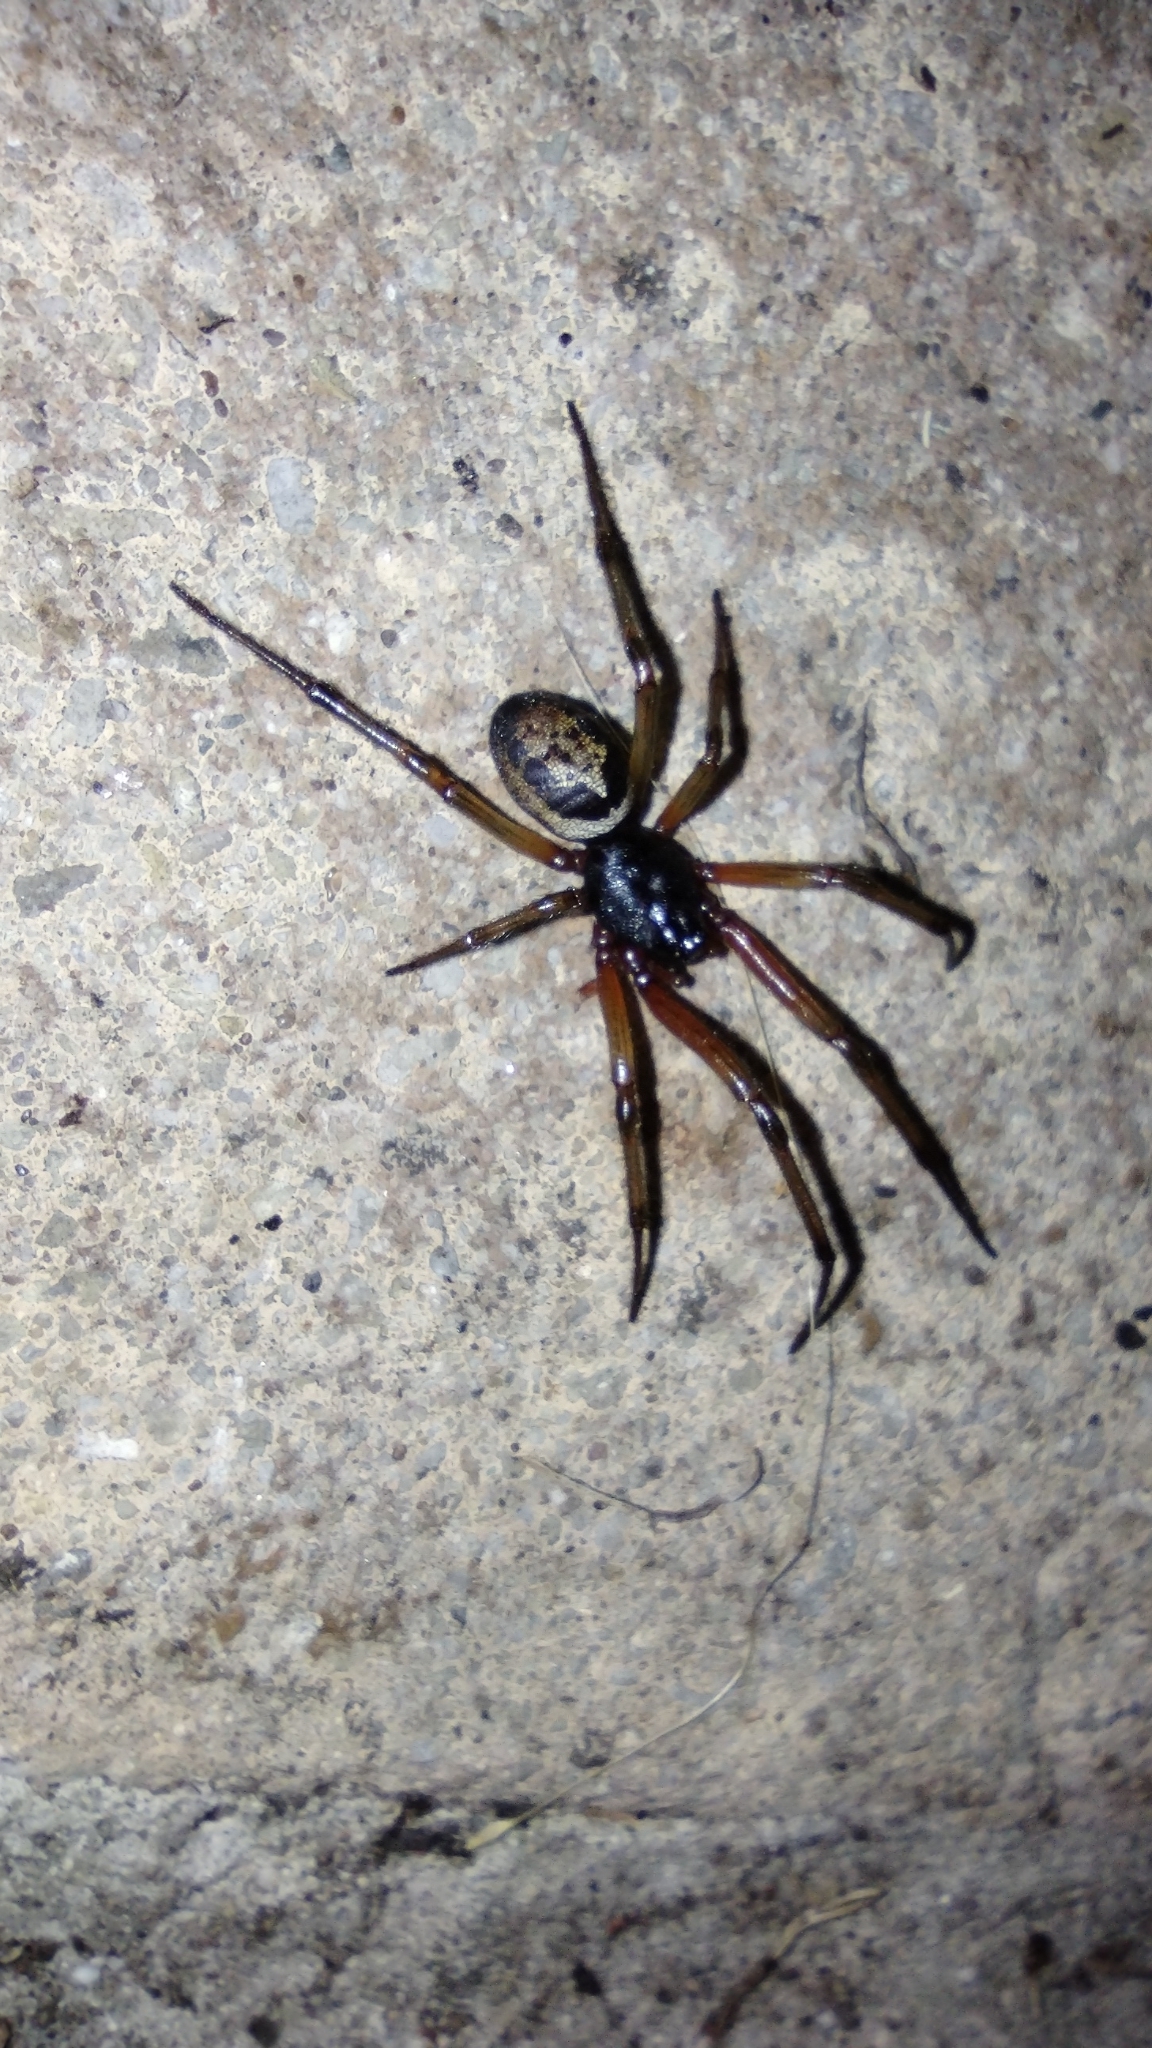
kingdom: Animalia
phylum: Arthropoda
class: Arachnida
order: Araneae
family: Theridiidae
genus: Steatoda
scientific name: Steatoda nobilis
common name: Cobweb weaver
